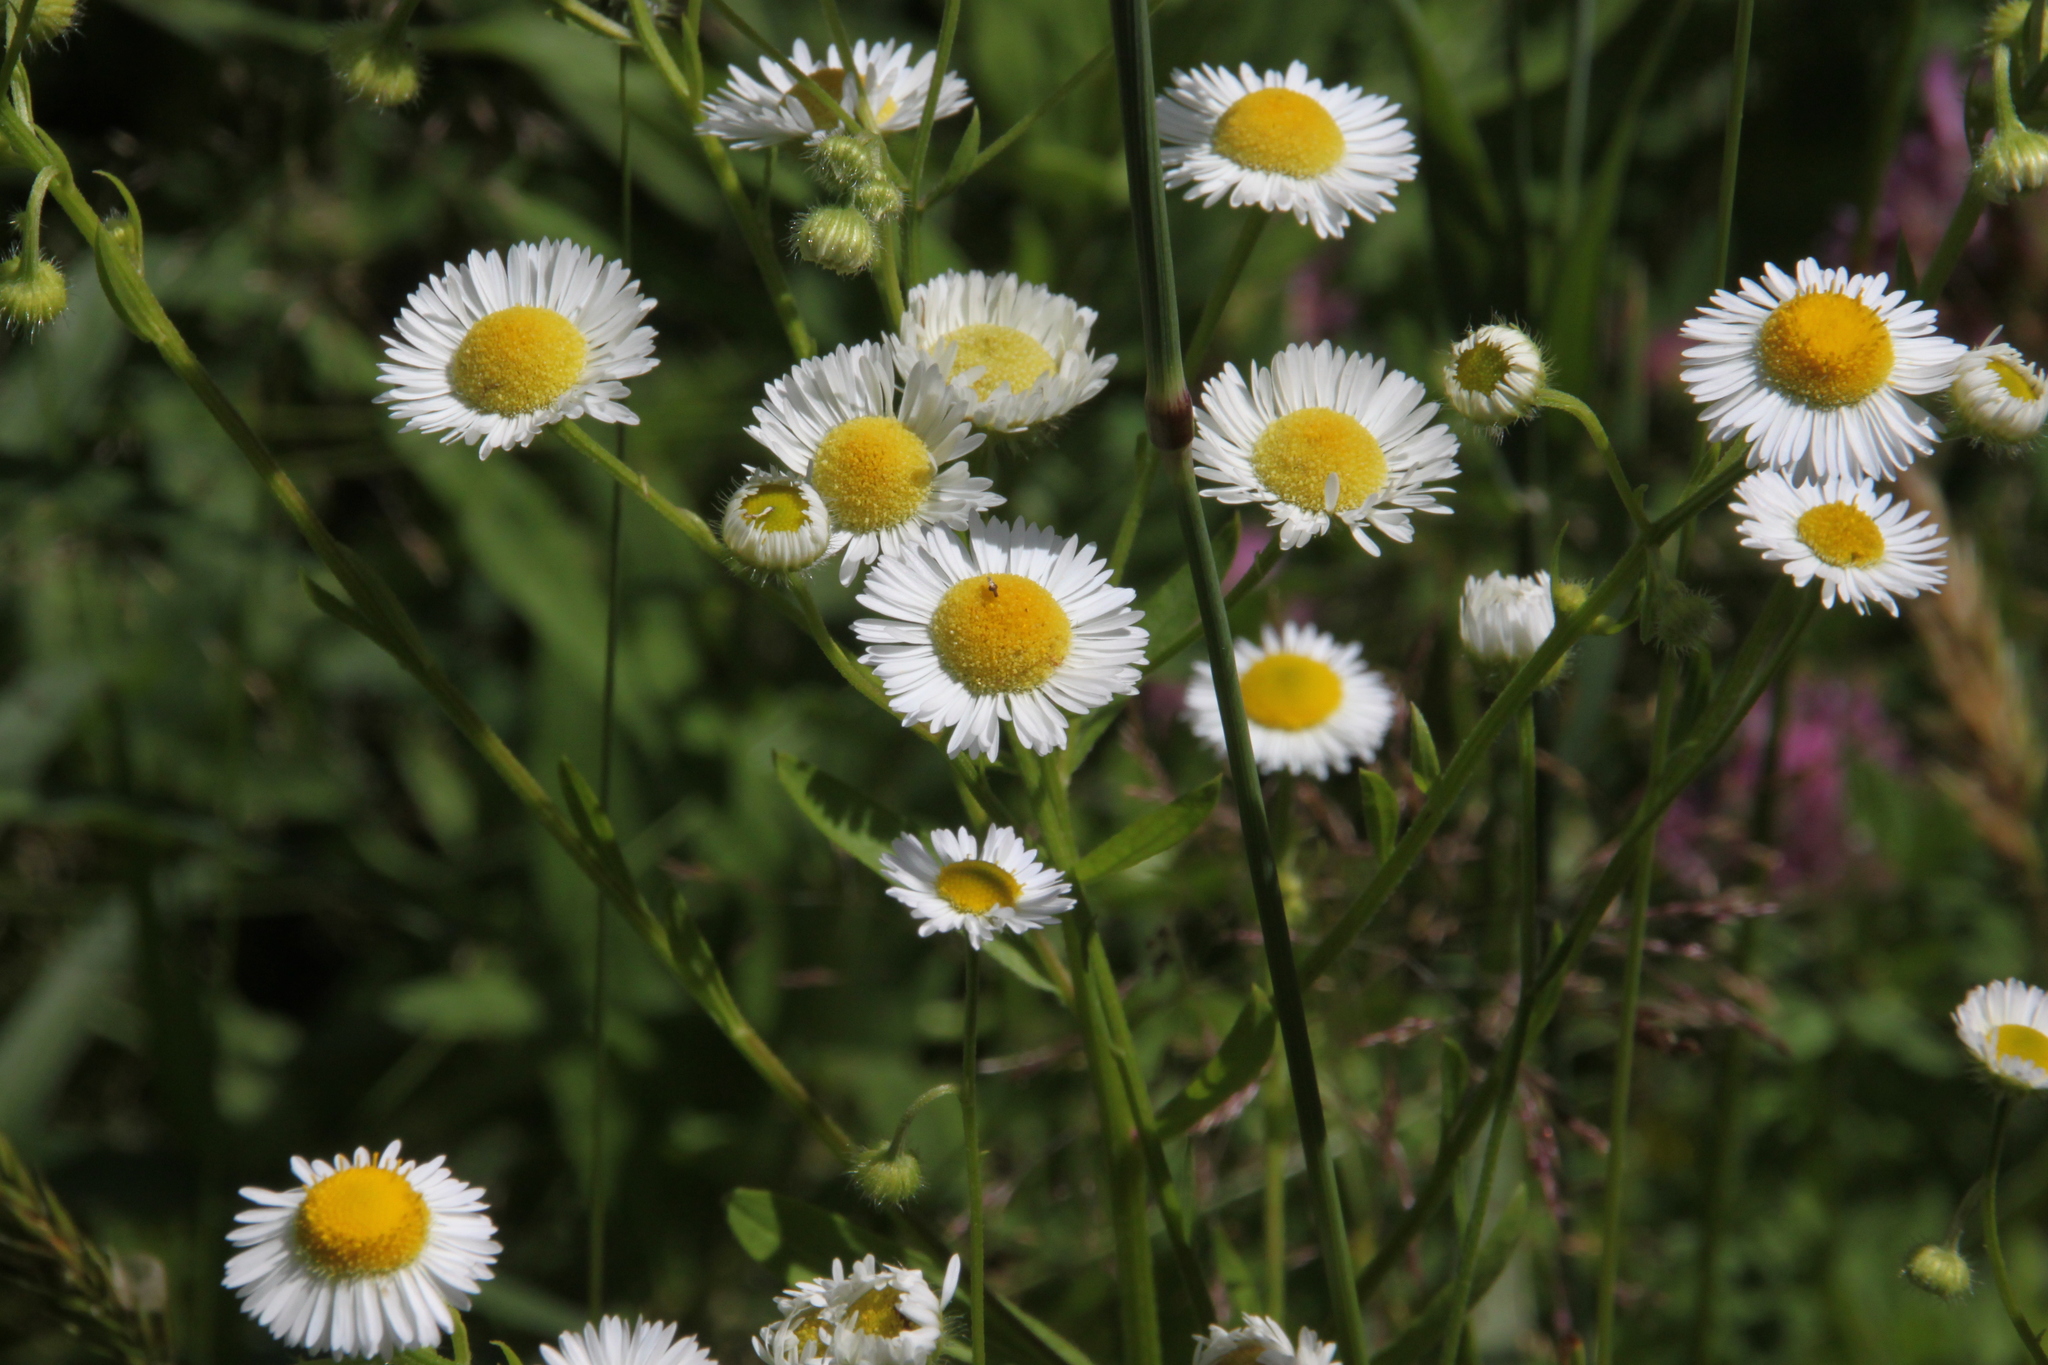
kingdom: Plantae
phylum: Tracheophyta
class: Magnoliopsida
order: Asterales
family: Asteraceae
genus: Erigeron
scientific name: Erigeron annuus
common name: Tall fleabane
